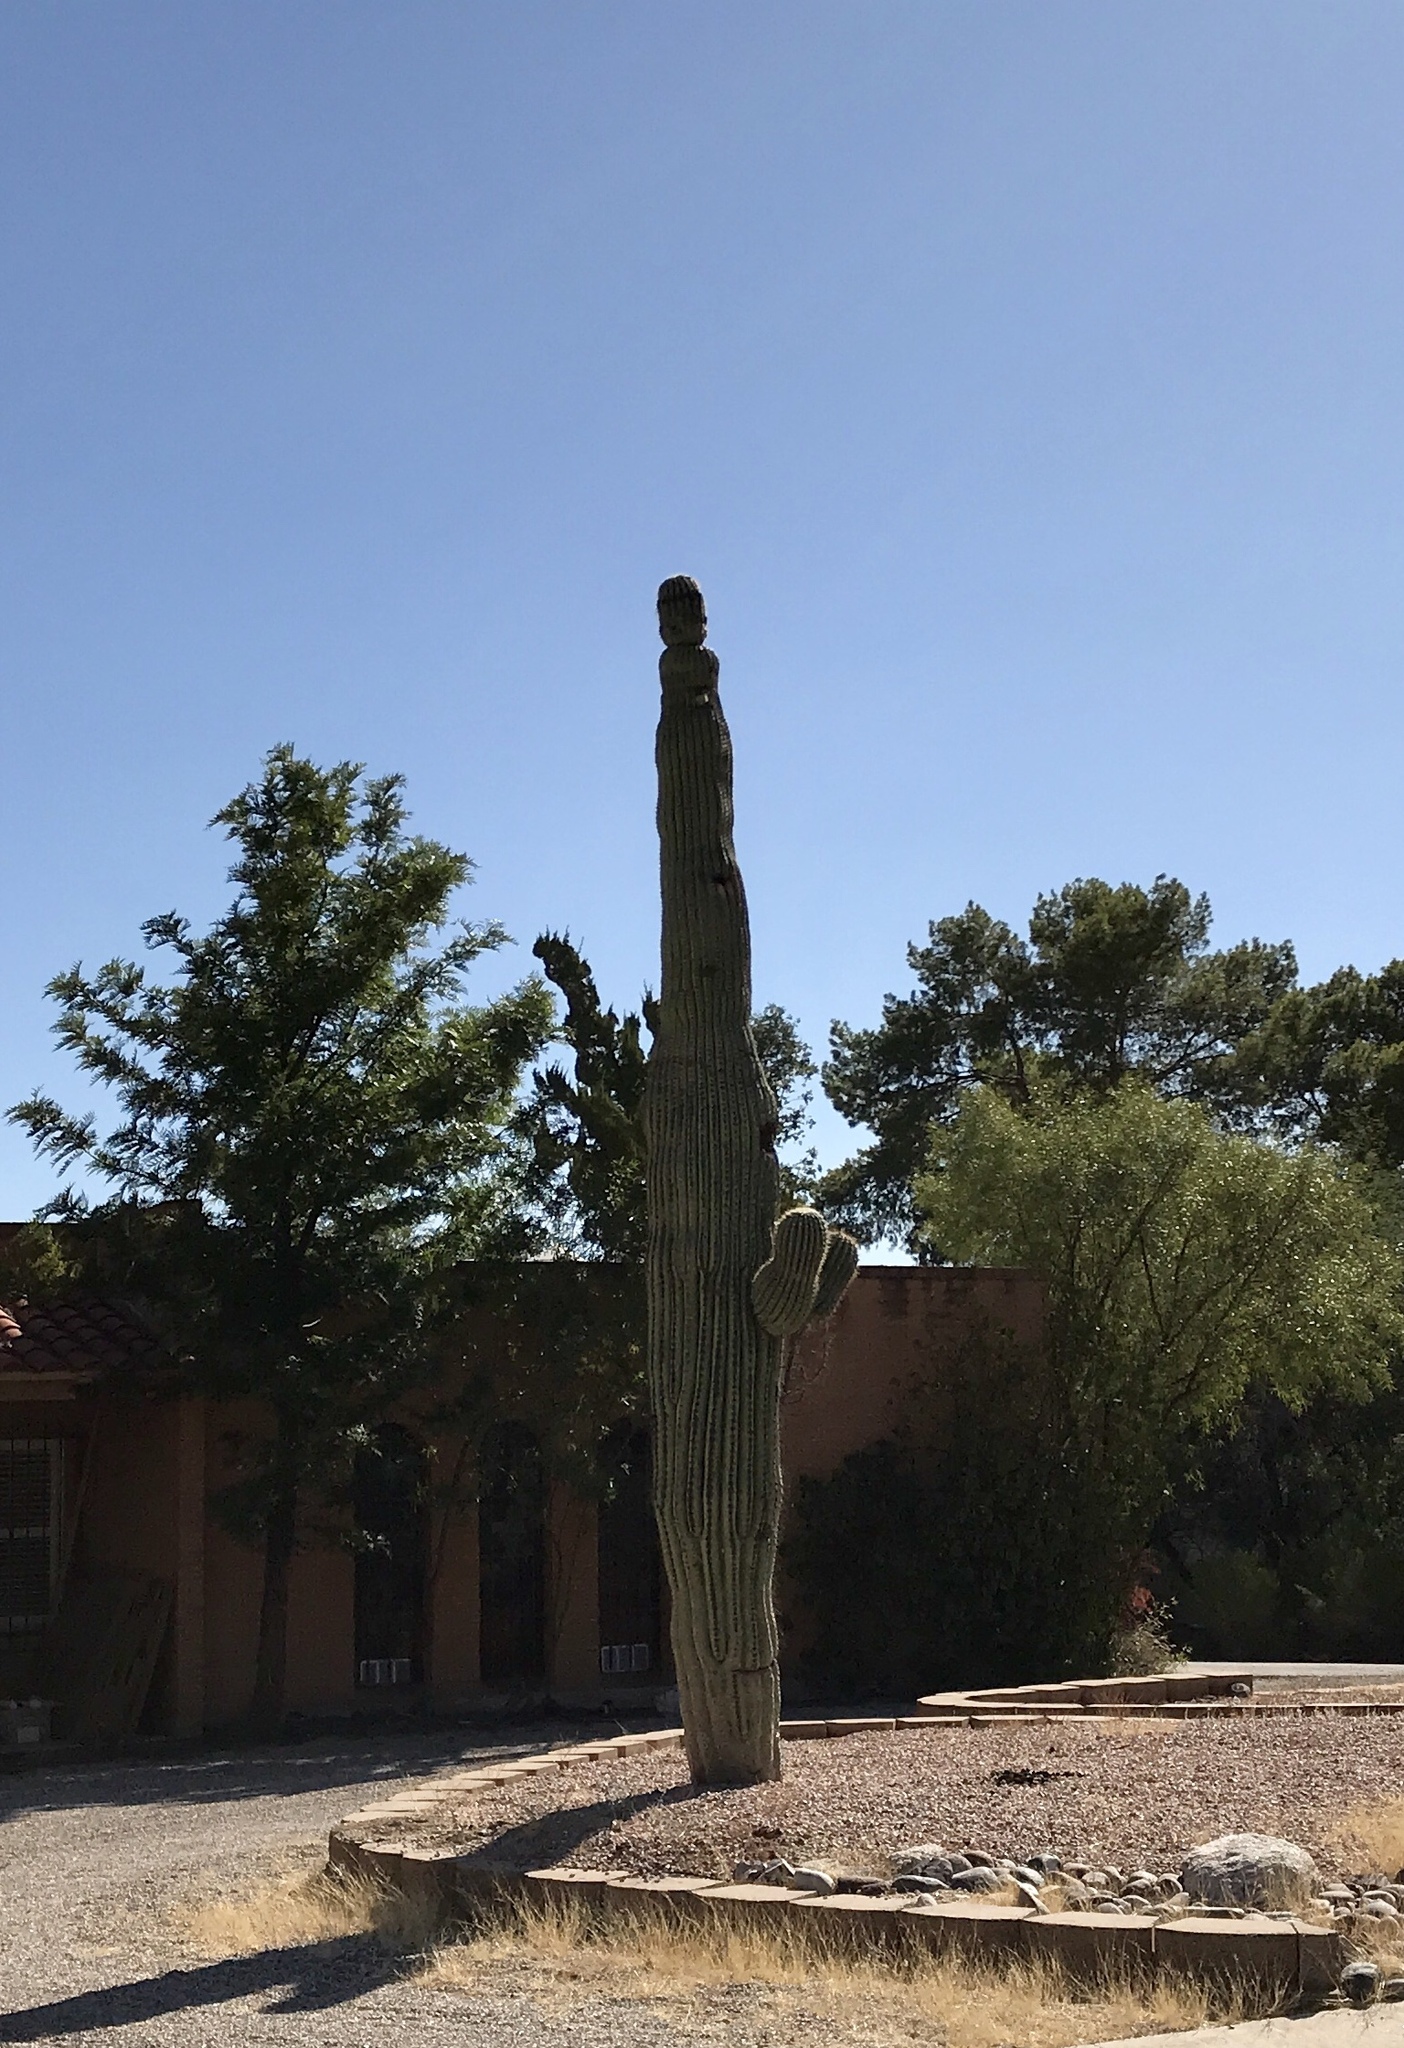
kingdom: Plantae
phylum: Tracheophyta
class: Magnoliopsida
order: Caryophyllales
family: Cactaceae
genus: Carnegiea
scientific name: Carnegiea gigantea
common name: Saguaro
